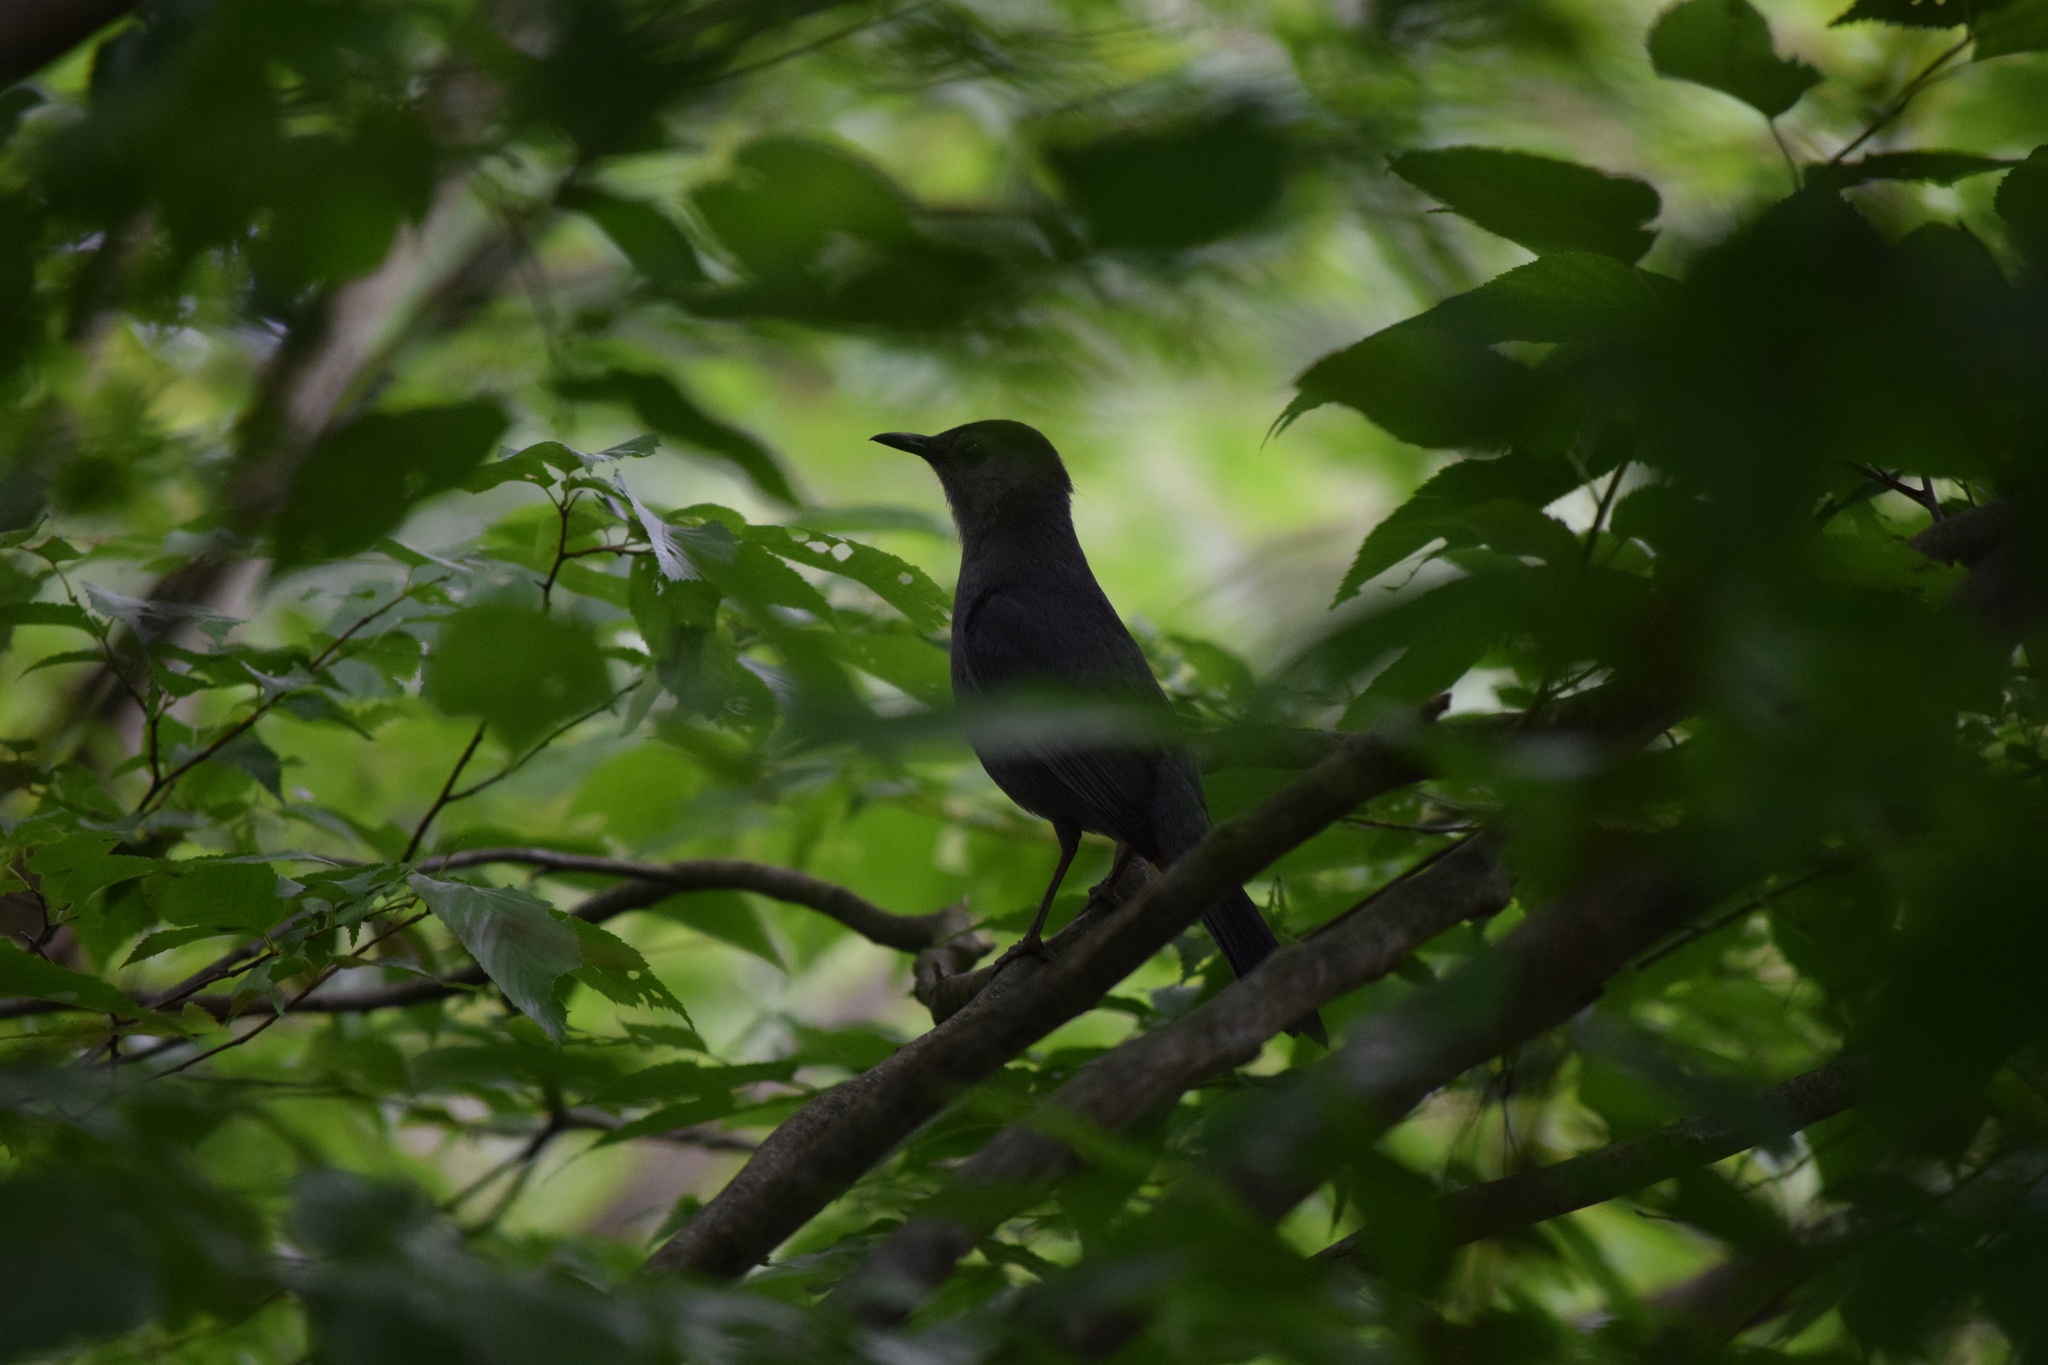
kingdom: Animalia
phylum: Chordata
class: Aves
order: Passeriformes
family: Mimidae
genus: Dumetella
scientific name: Dumetella carolinensis
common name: Gray catbird
